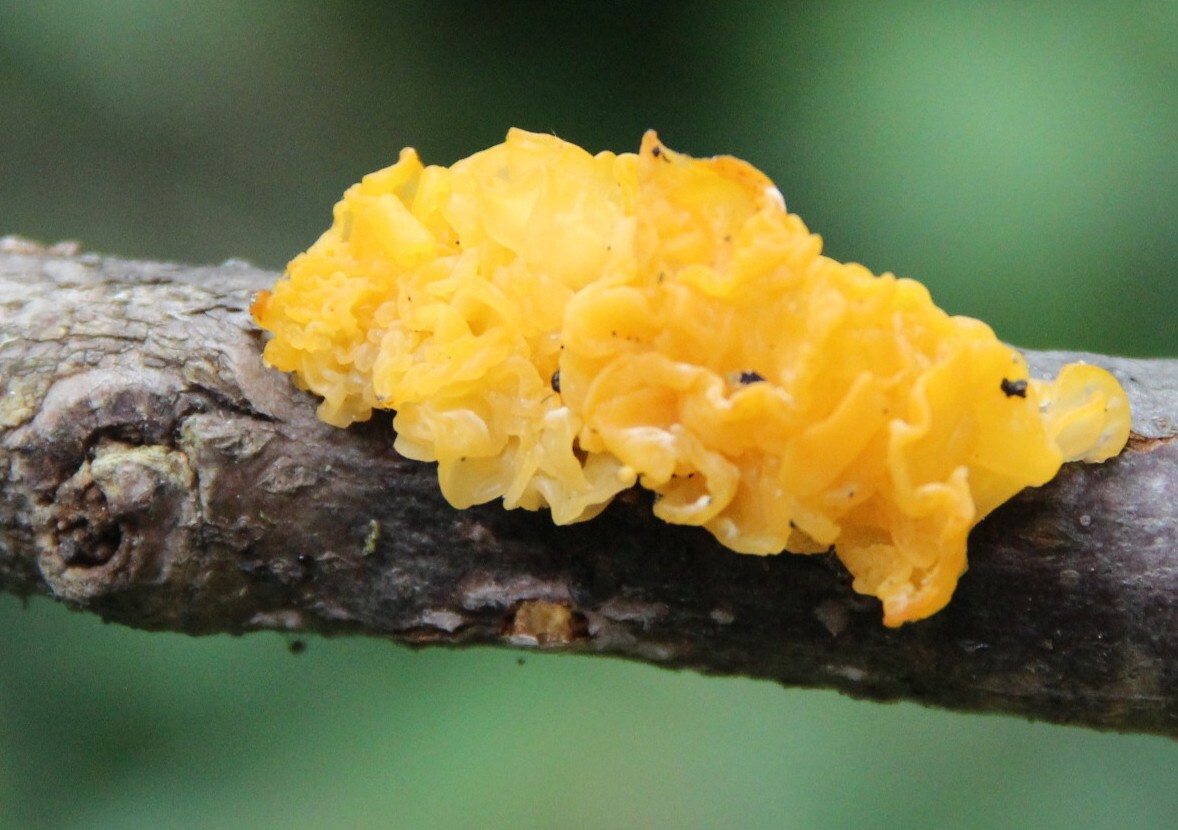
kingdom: Fungi
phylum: Basidiomycota
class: Tremellomycetes
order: Tremellales
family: Tremellaceae
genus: Tremella
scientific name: Tremella mesenterica
